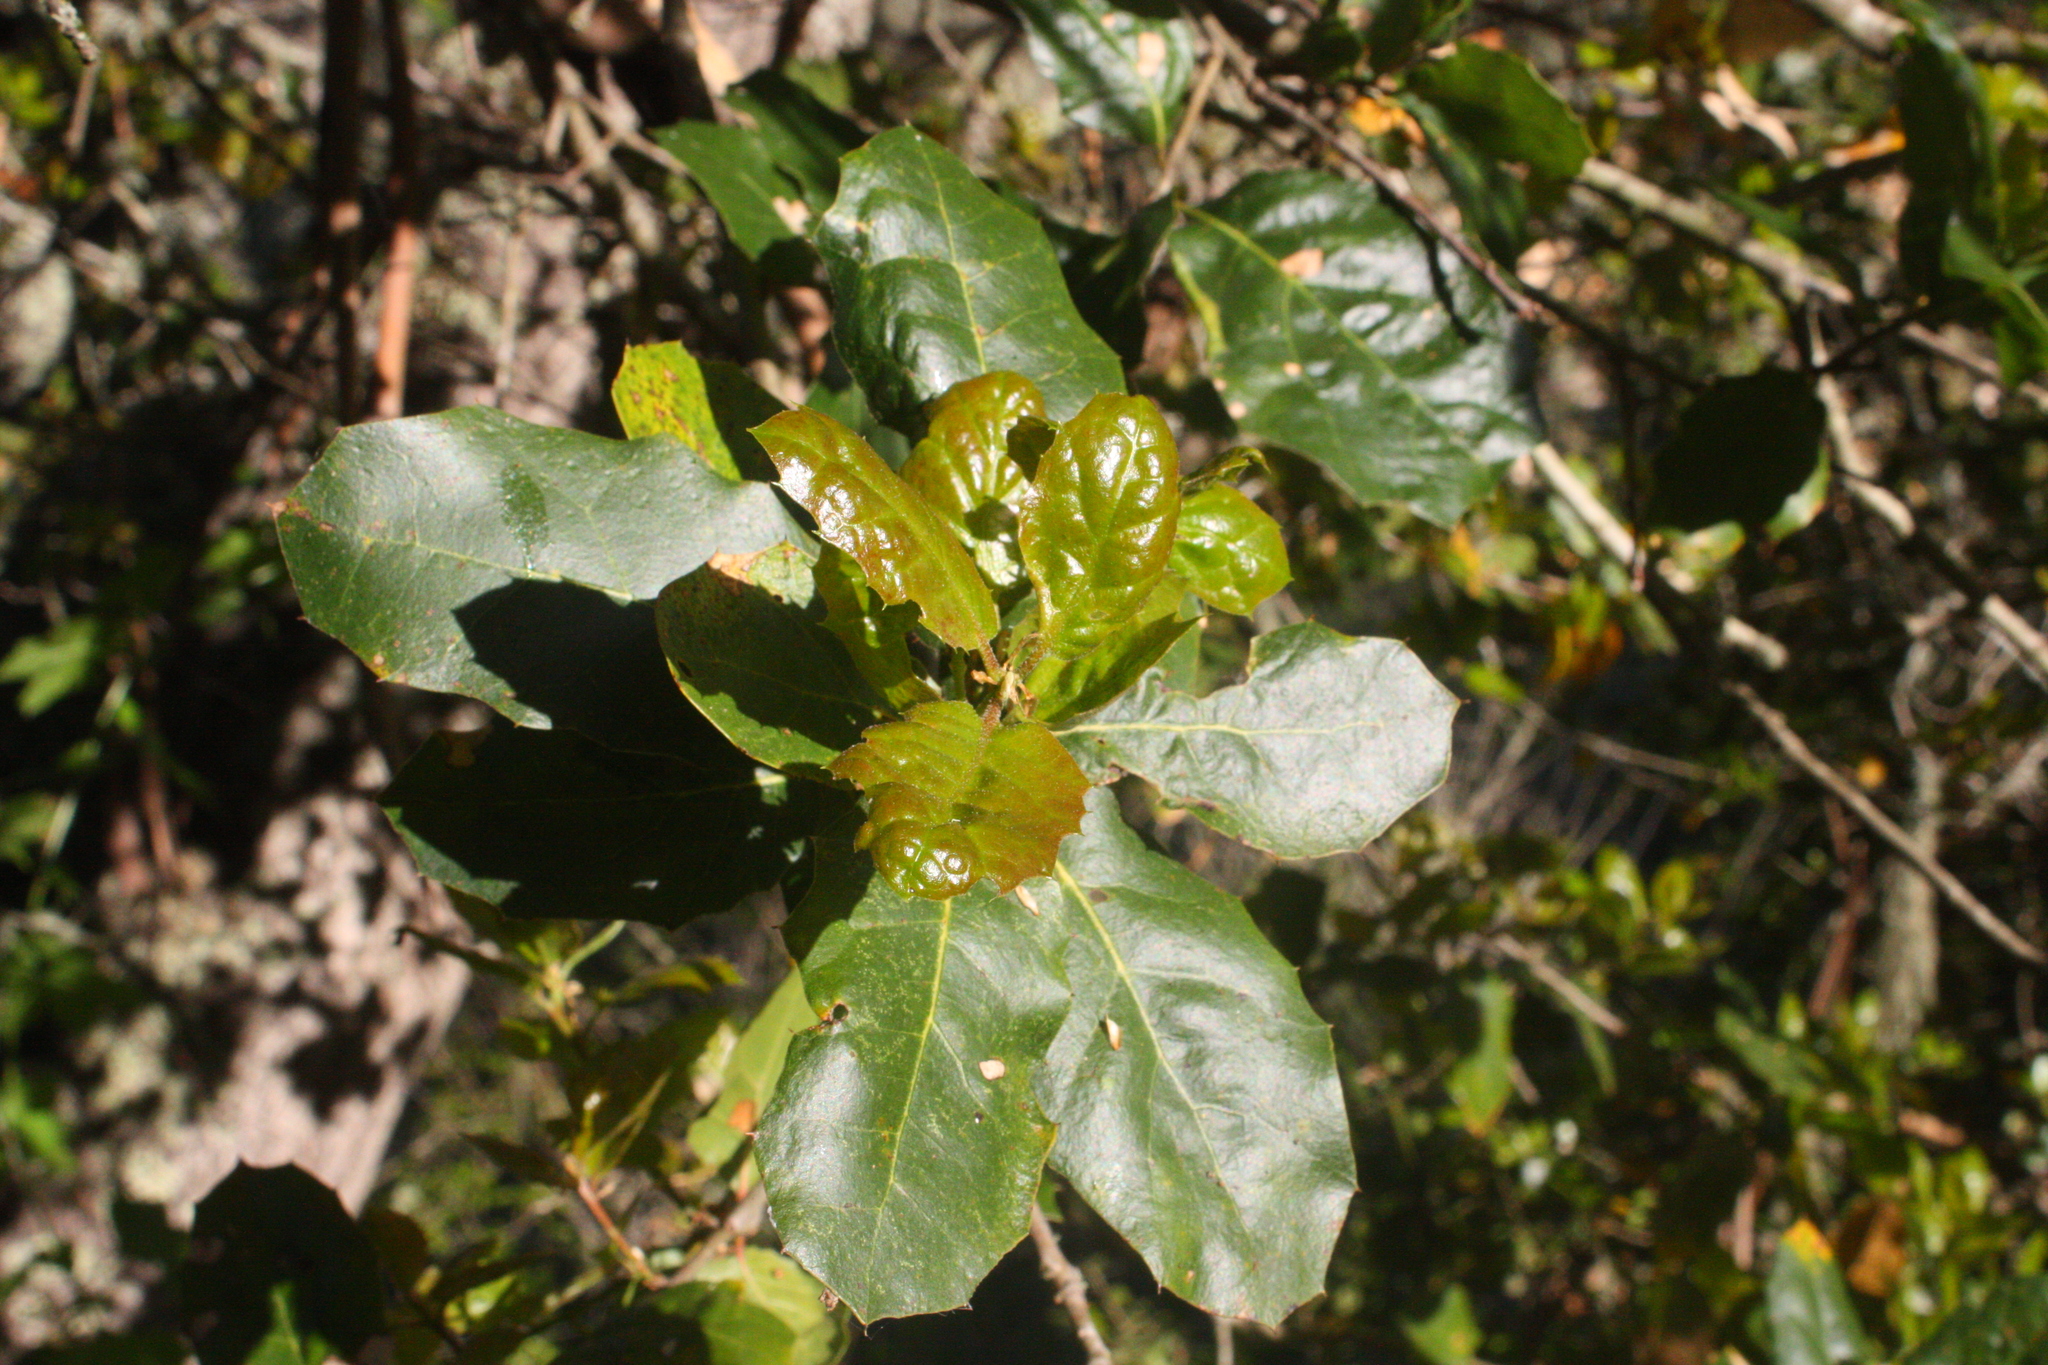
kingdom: Plantae
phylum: Tracheophyta
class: Magnoliopsida
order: Fagales
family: Fagaceae
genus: Quercus
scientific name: Quercus agrifolia
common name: California live oak
